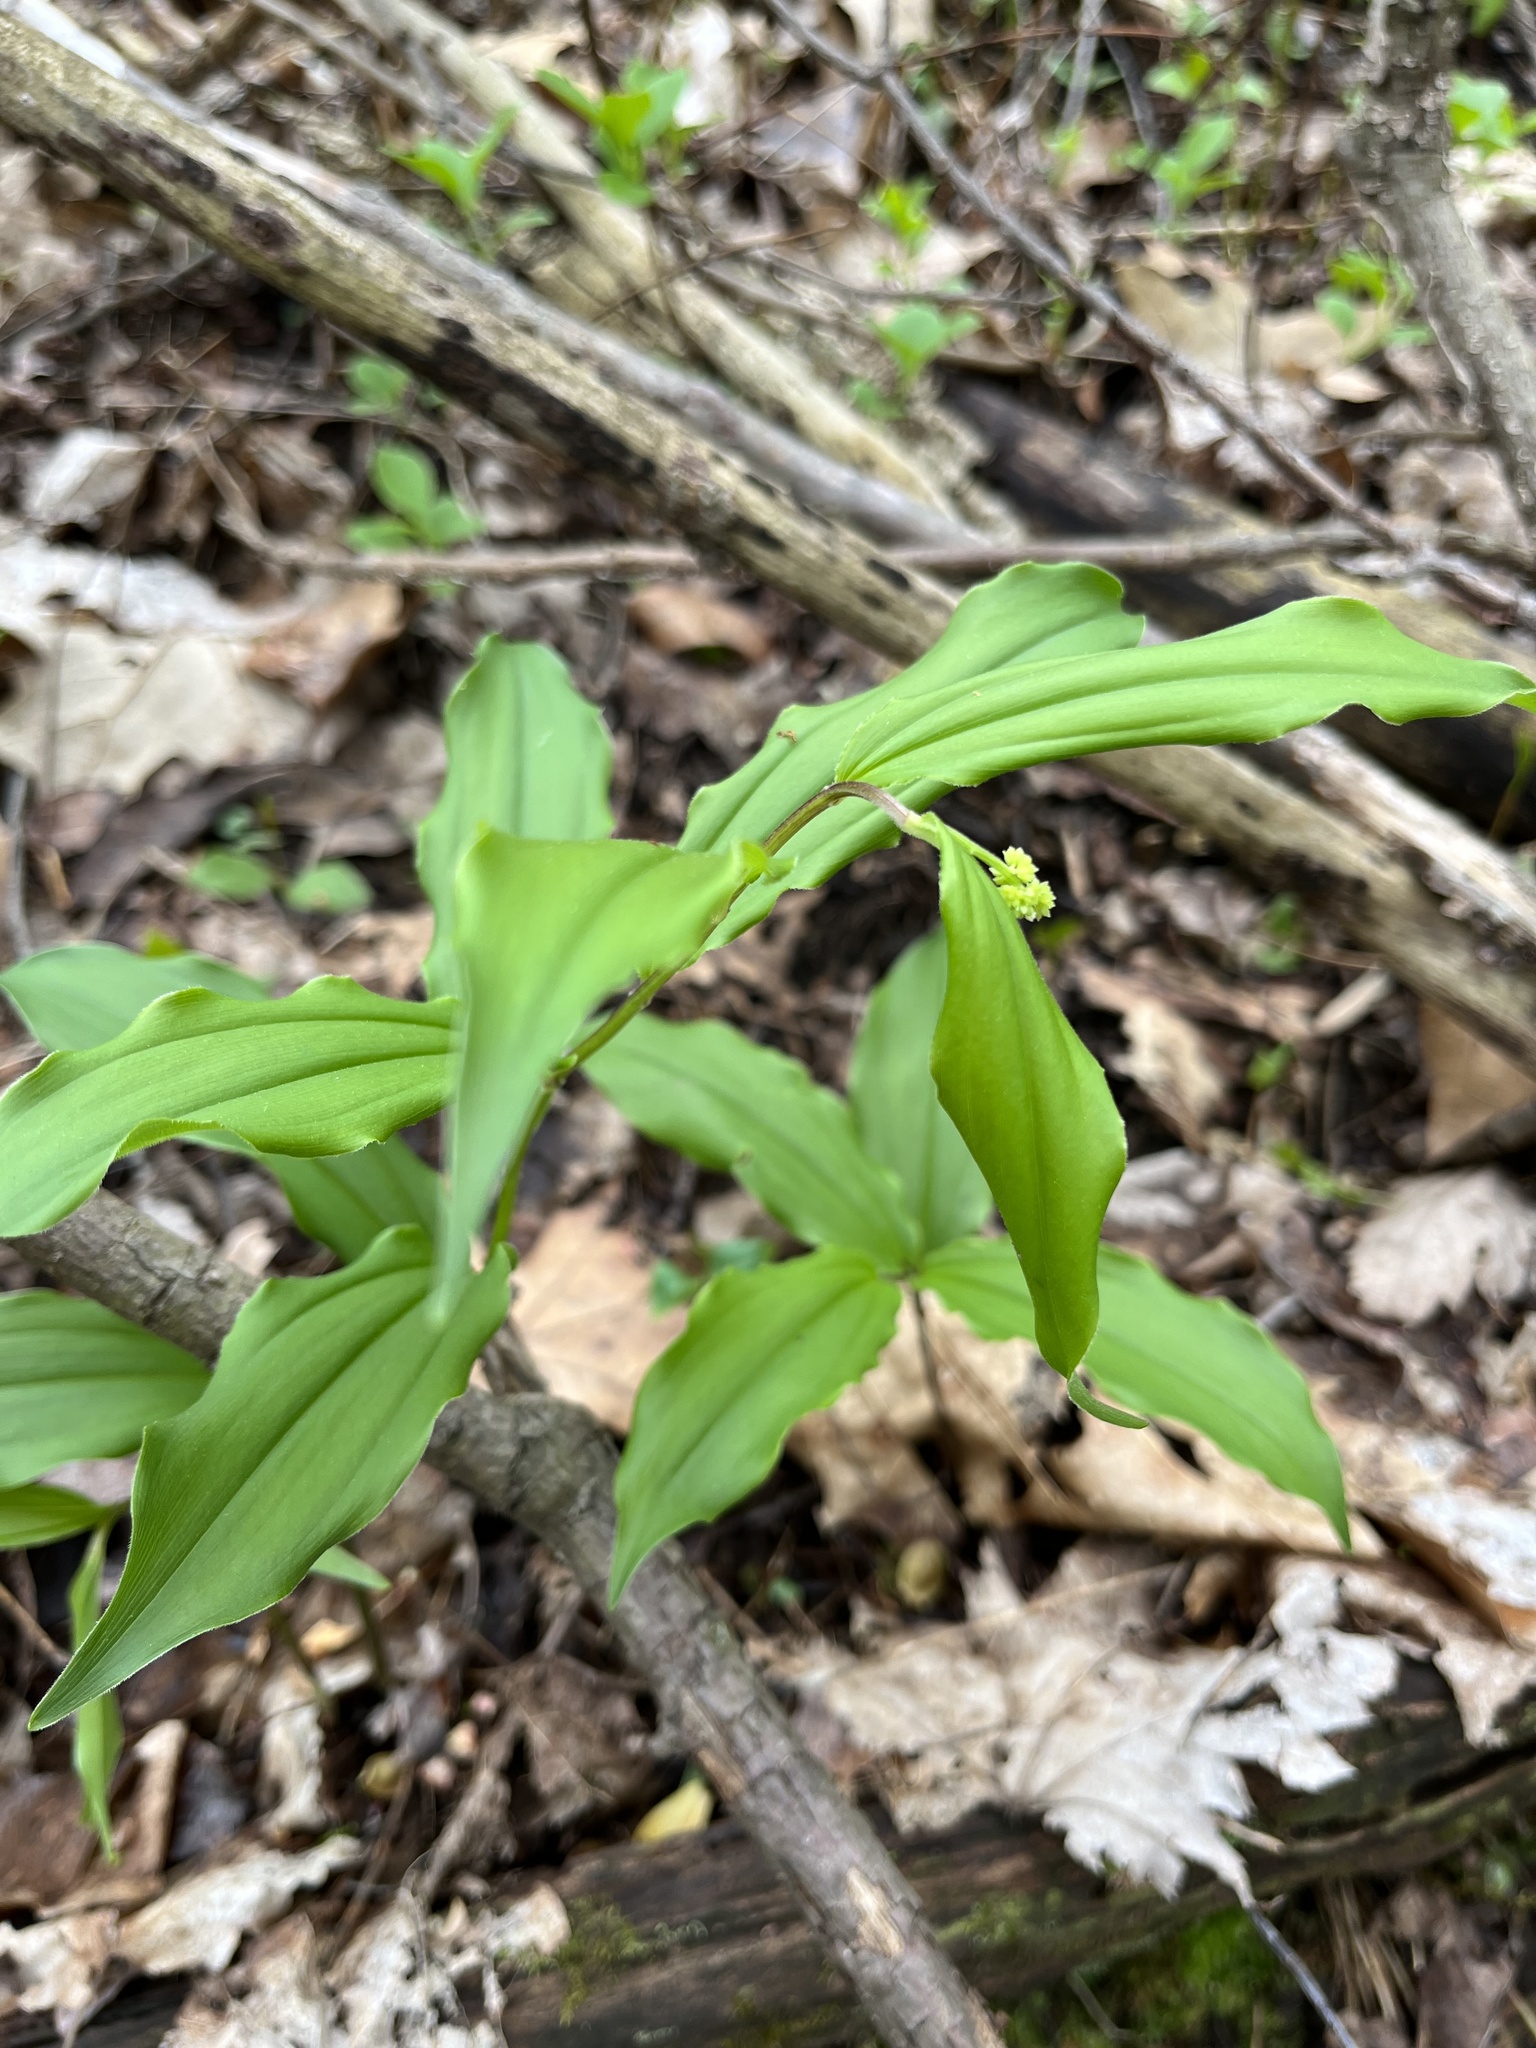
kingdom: Plantae
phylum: Tracheophyta
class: Liliopsida
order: Asparagales
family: Asparagaceae
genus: Maianthemum
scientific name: Maianthemum racemosum
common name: False spikenard
